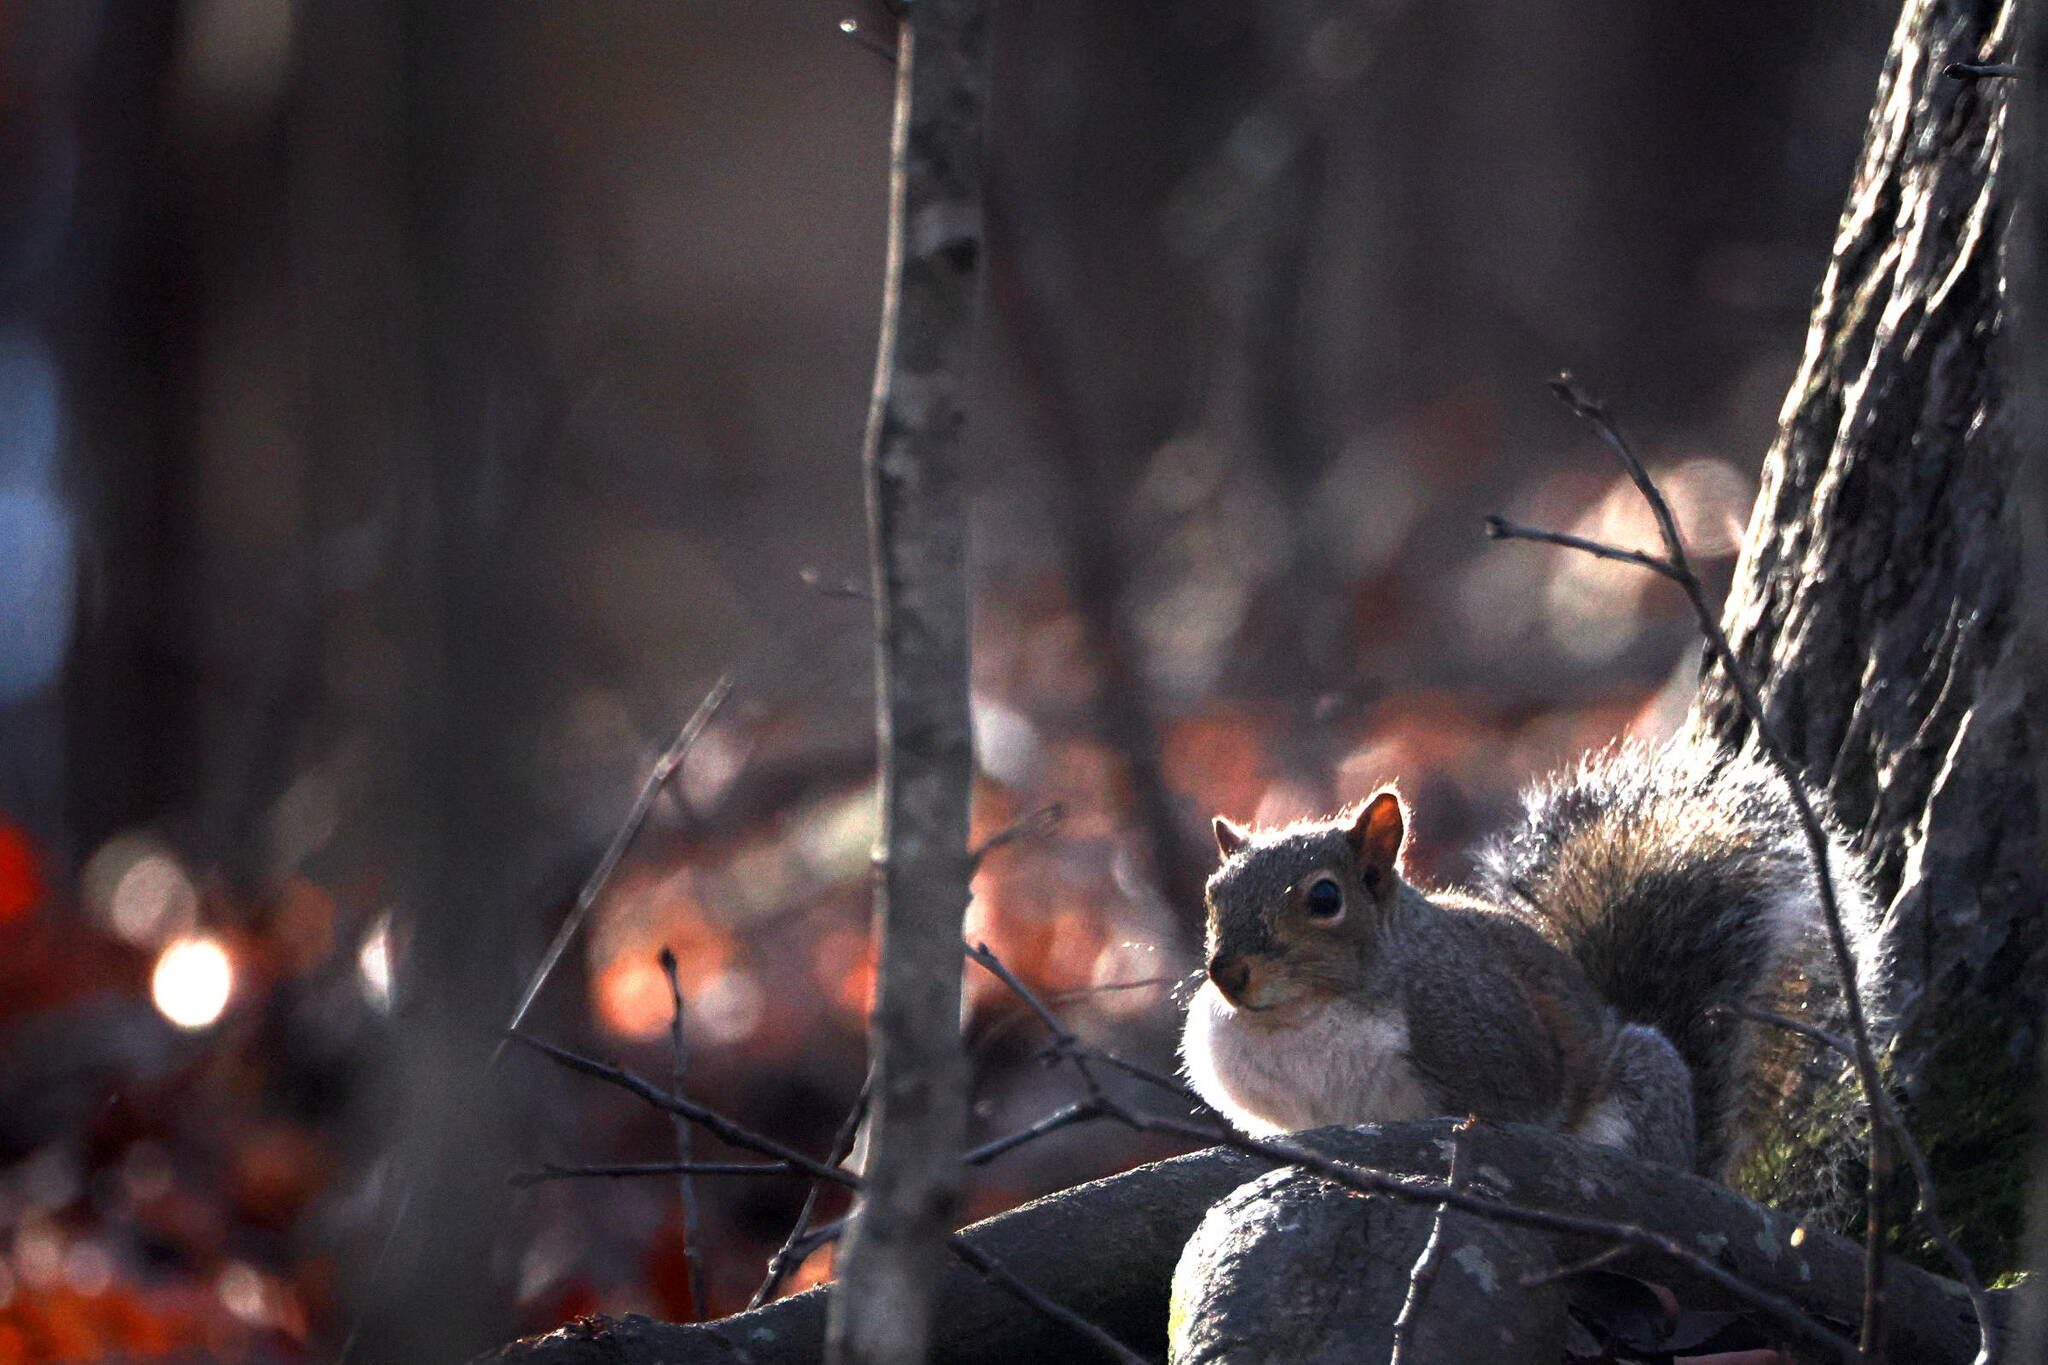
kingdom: Animalia
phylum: Chordata
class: Mammalia
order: Rodentia
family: Sciuridae
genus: Sciurus
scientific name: Sciurus carolinensis
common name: Eastern gray squirrel
